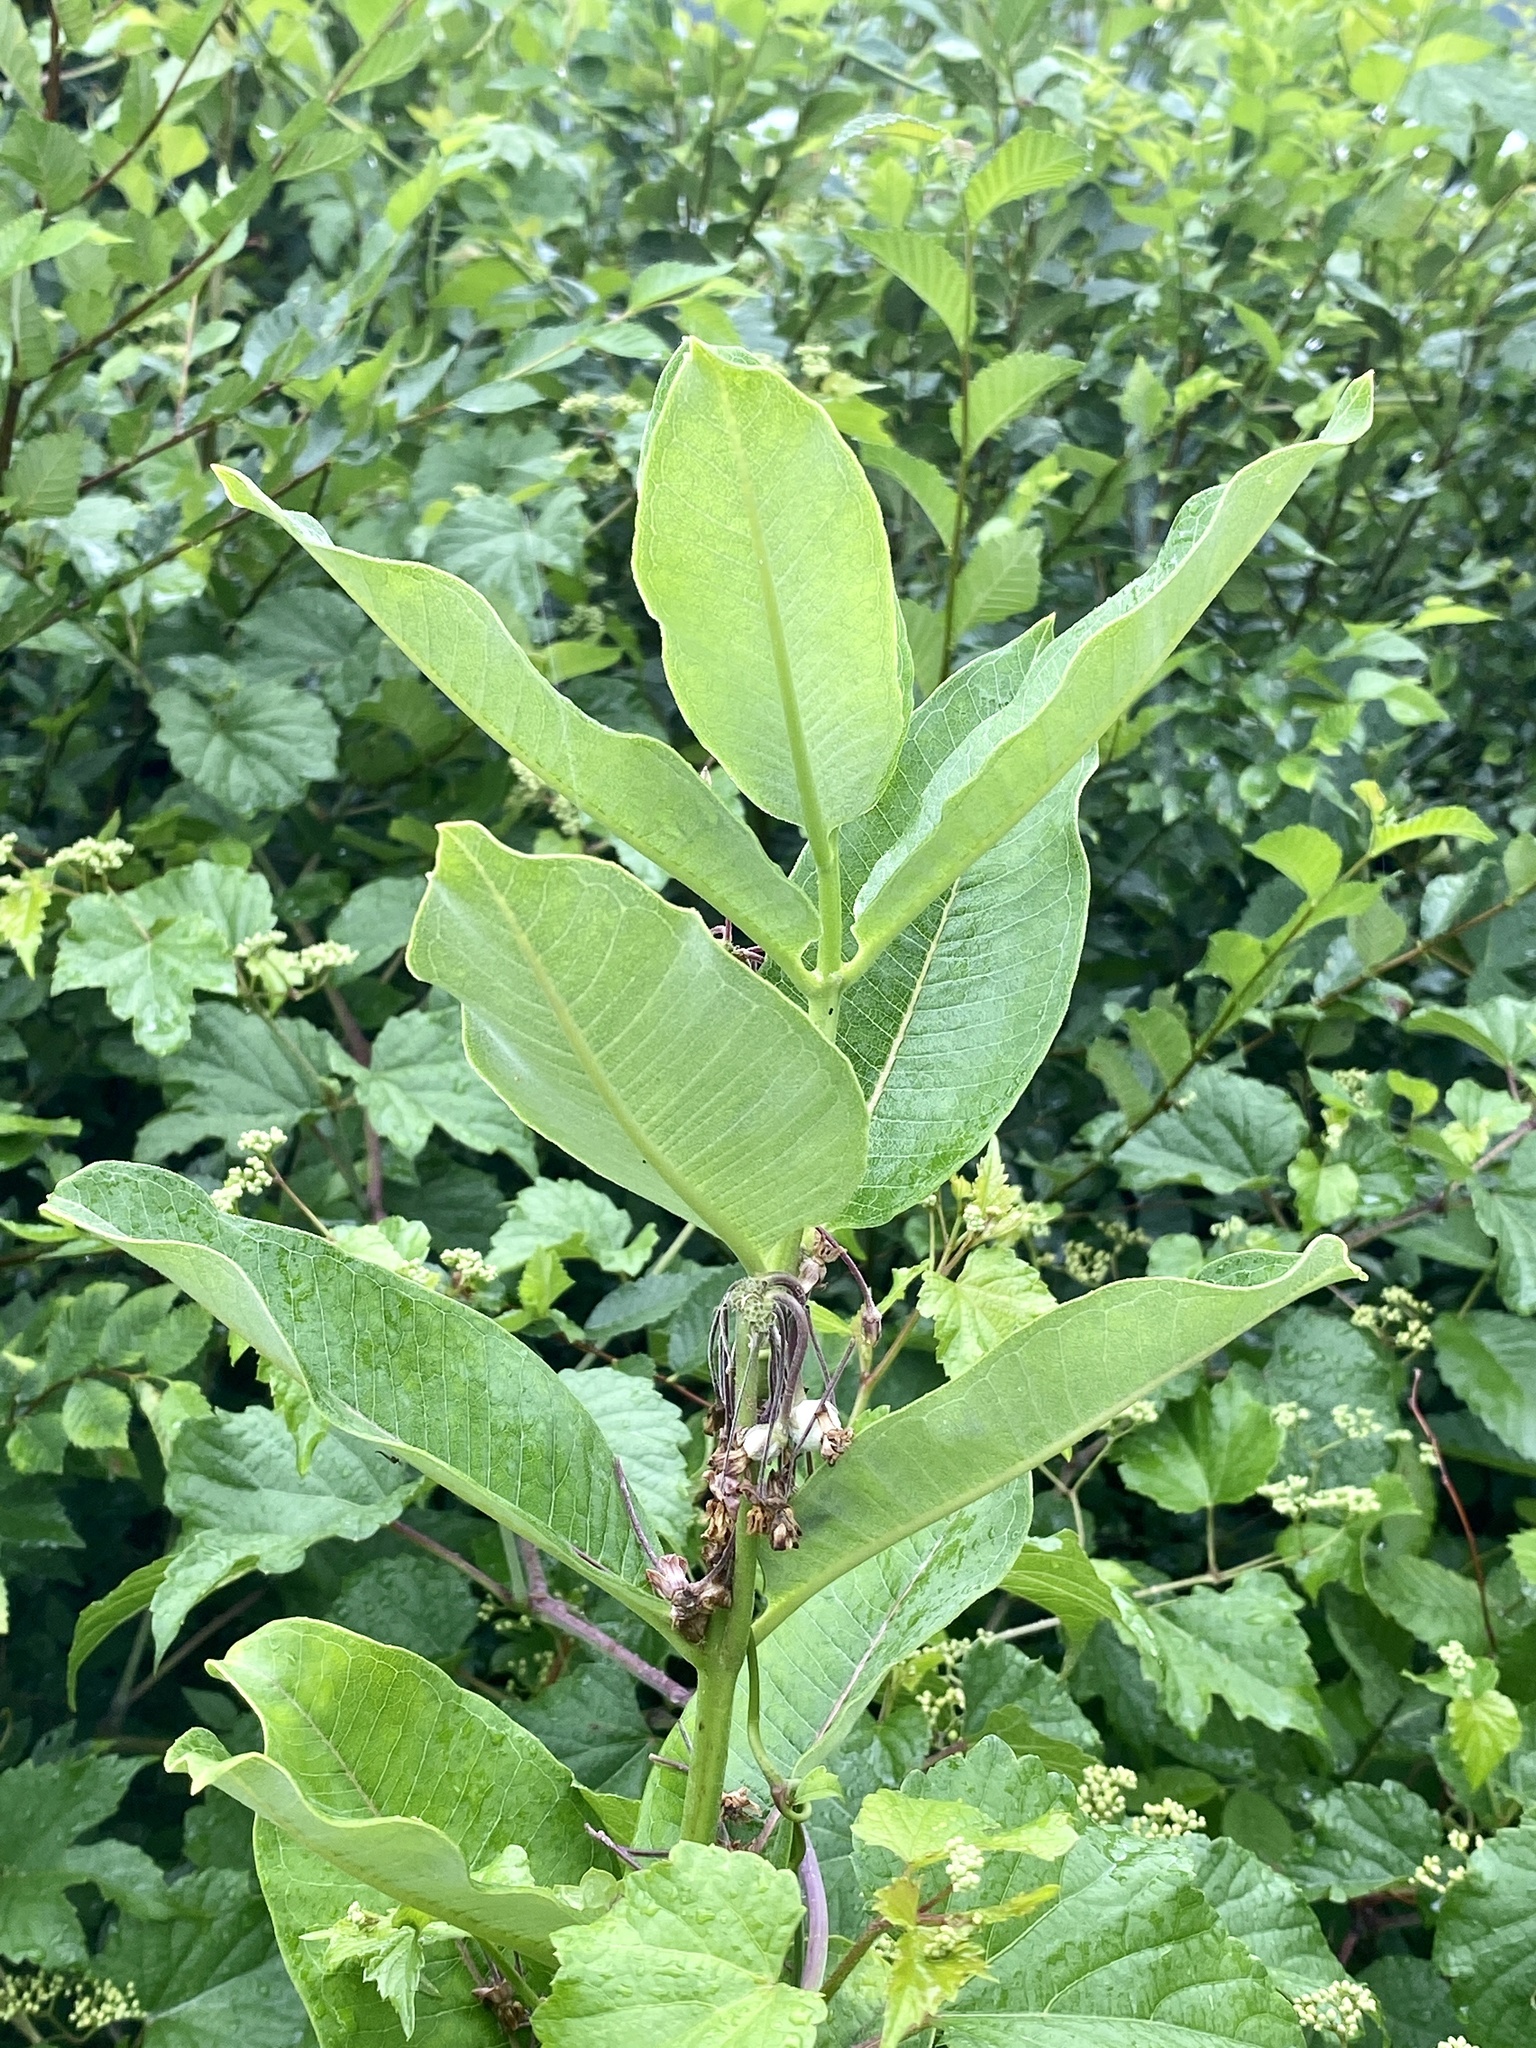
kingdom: Plantae
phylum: Tracheophyta
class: Magnoliopsida
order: Gentianales
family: Apocynaceae
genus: Asclepias
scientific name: Asclepias syriaca
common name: Common milkweed
